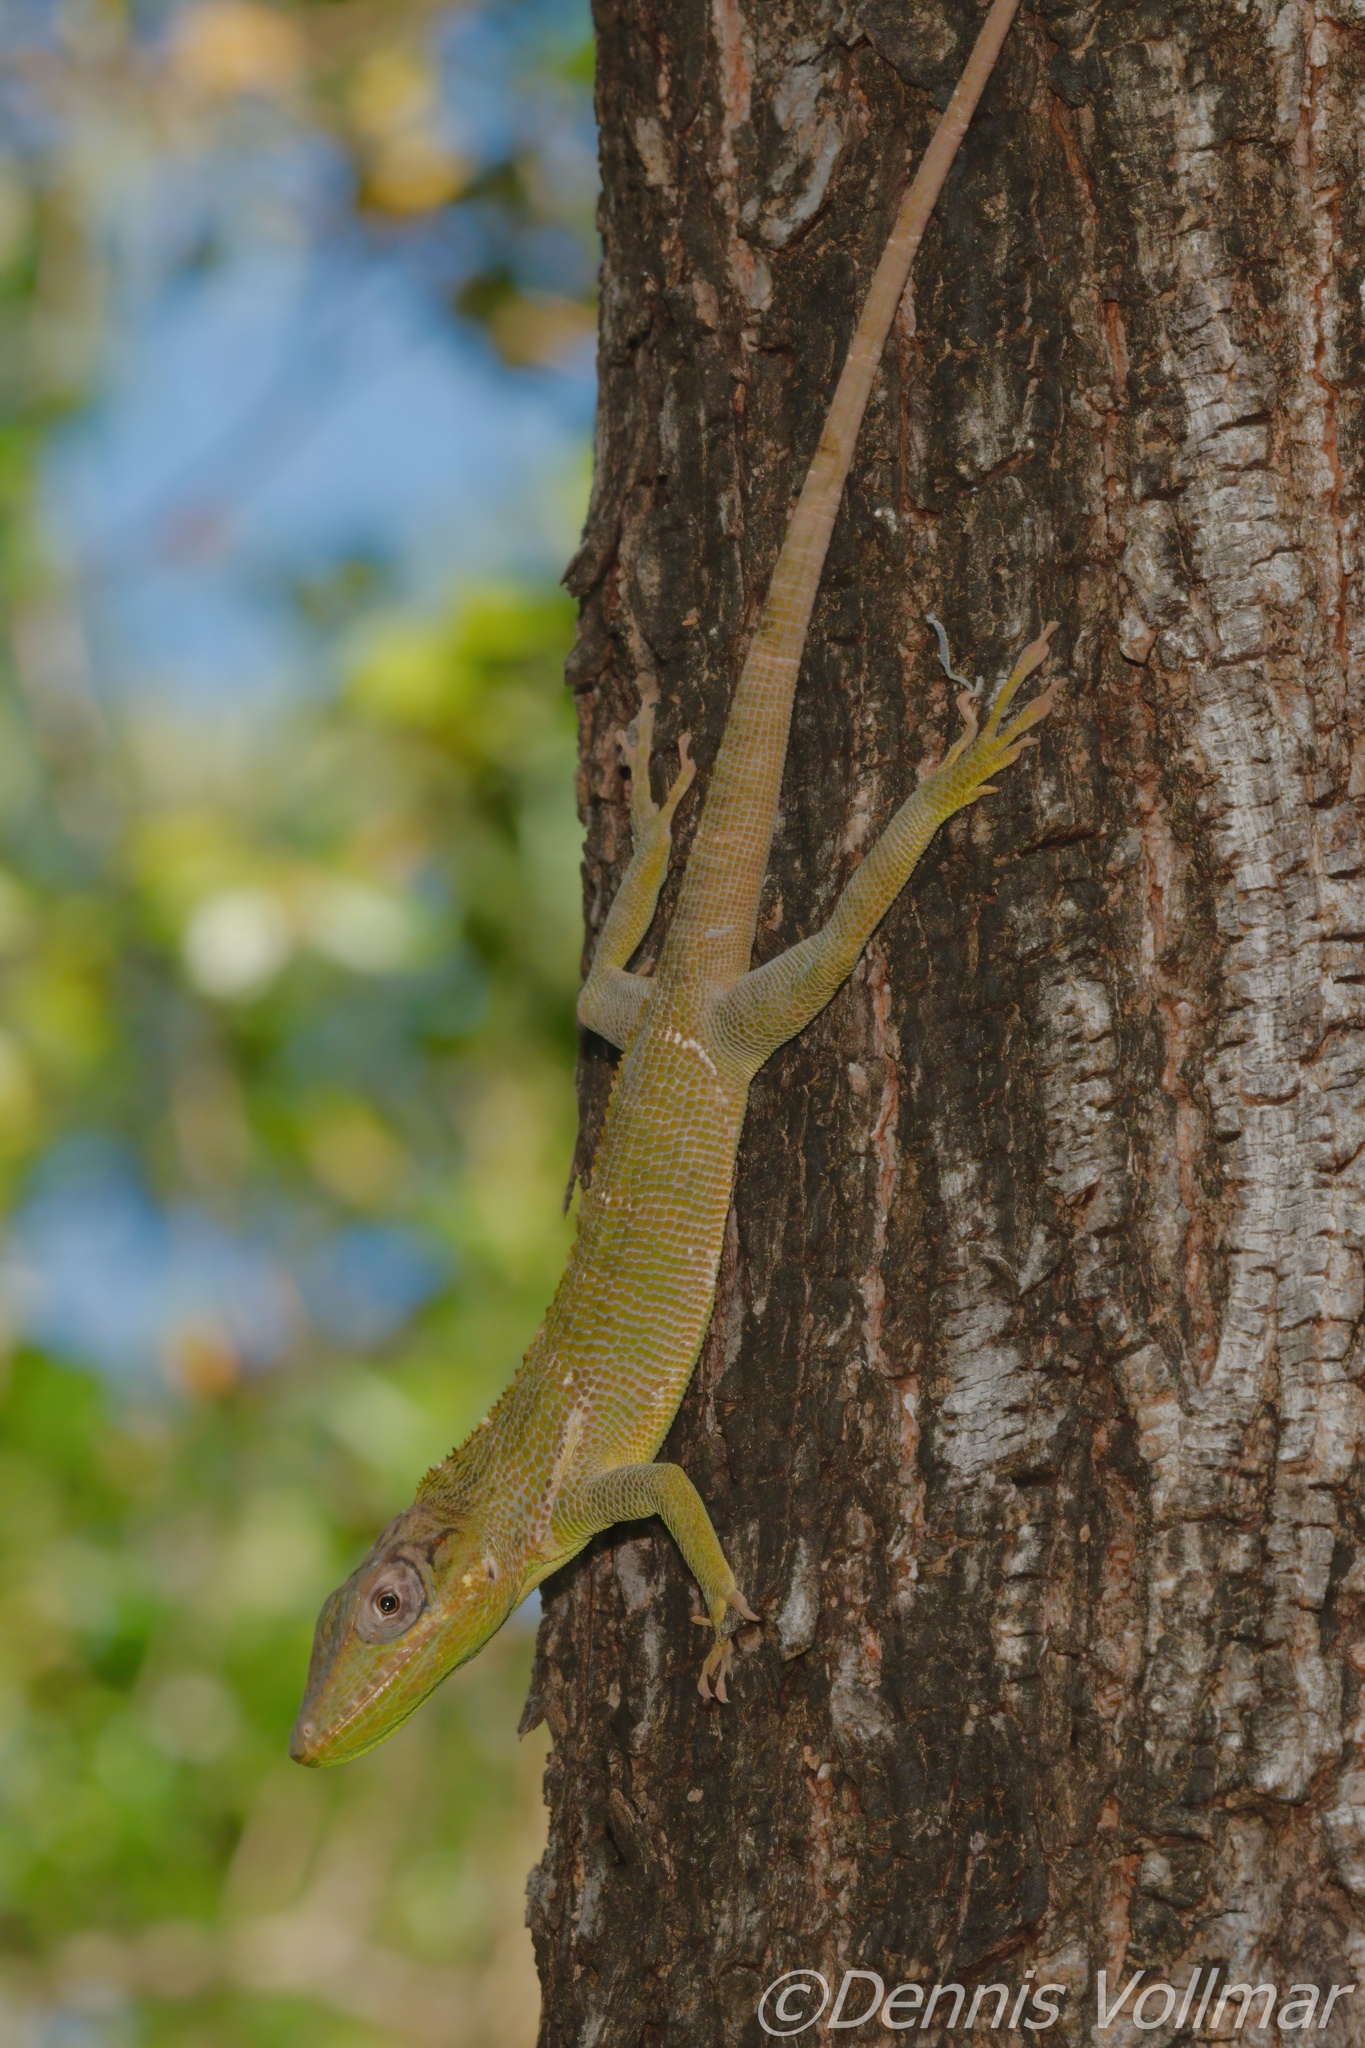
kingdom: Animalia
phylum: Chordata
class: Squamata
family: Dactyloidae
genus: Anolis
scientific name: Anolis equestris
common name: Knight anole
